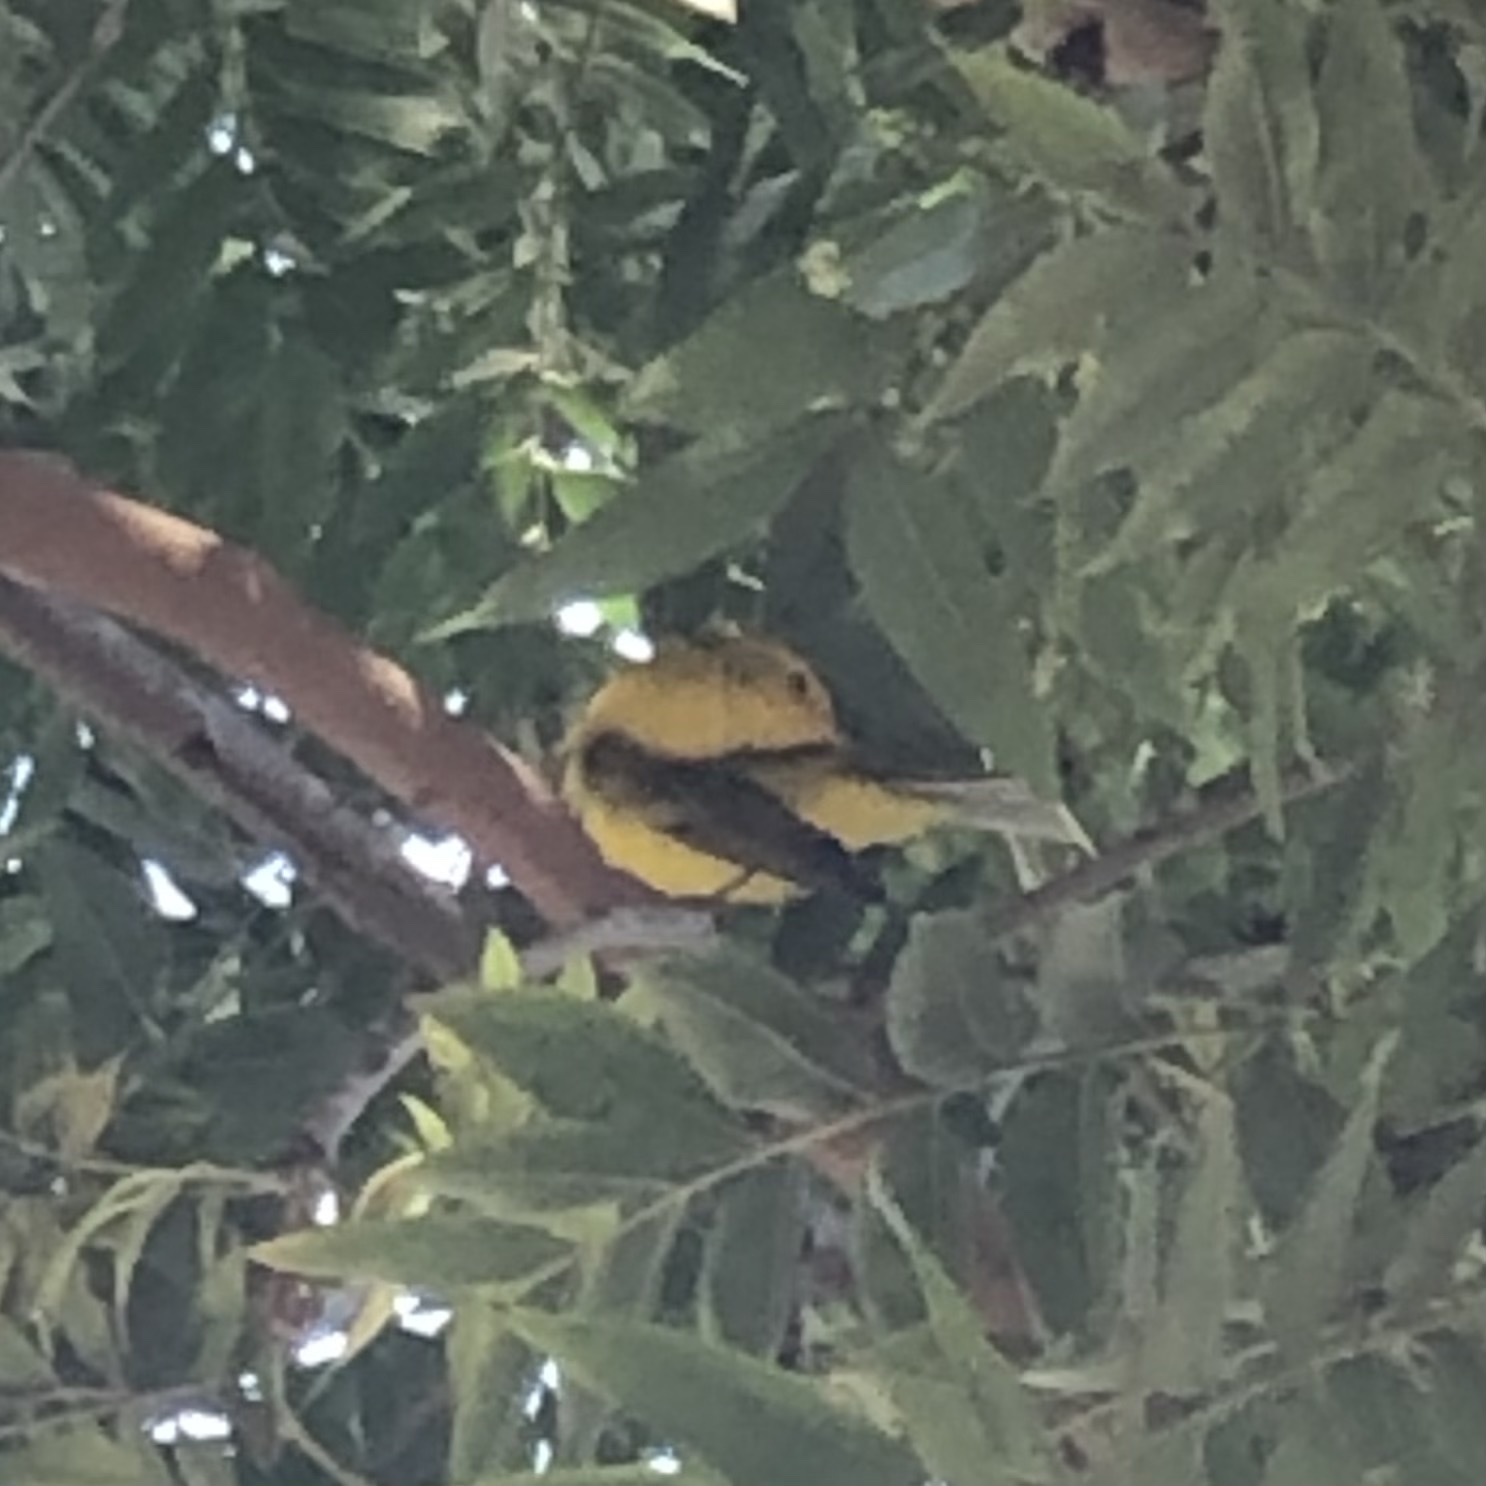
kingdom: Animalia
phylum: Chordata
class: Aves
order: Passeriformes
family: Parulidae
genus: Cardellina
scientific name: Cardellina pusilla
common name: Wilson's warbler
